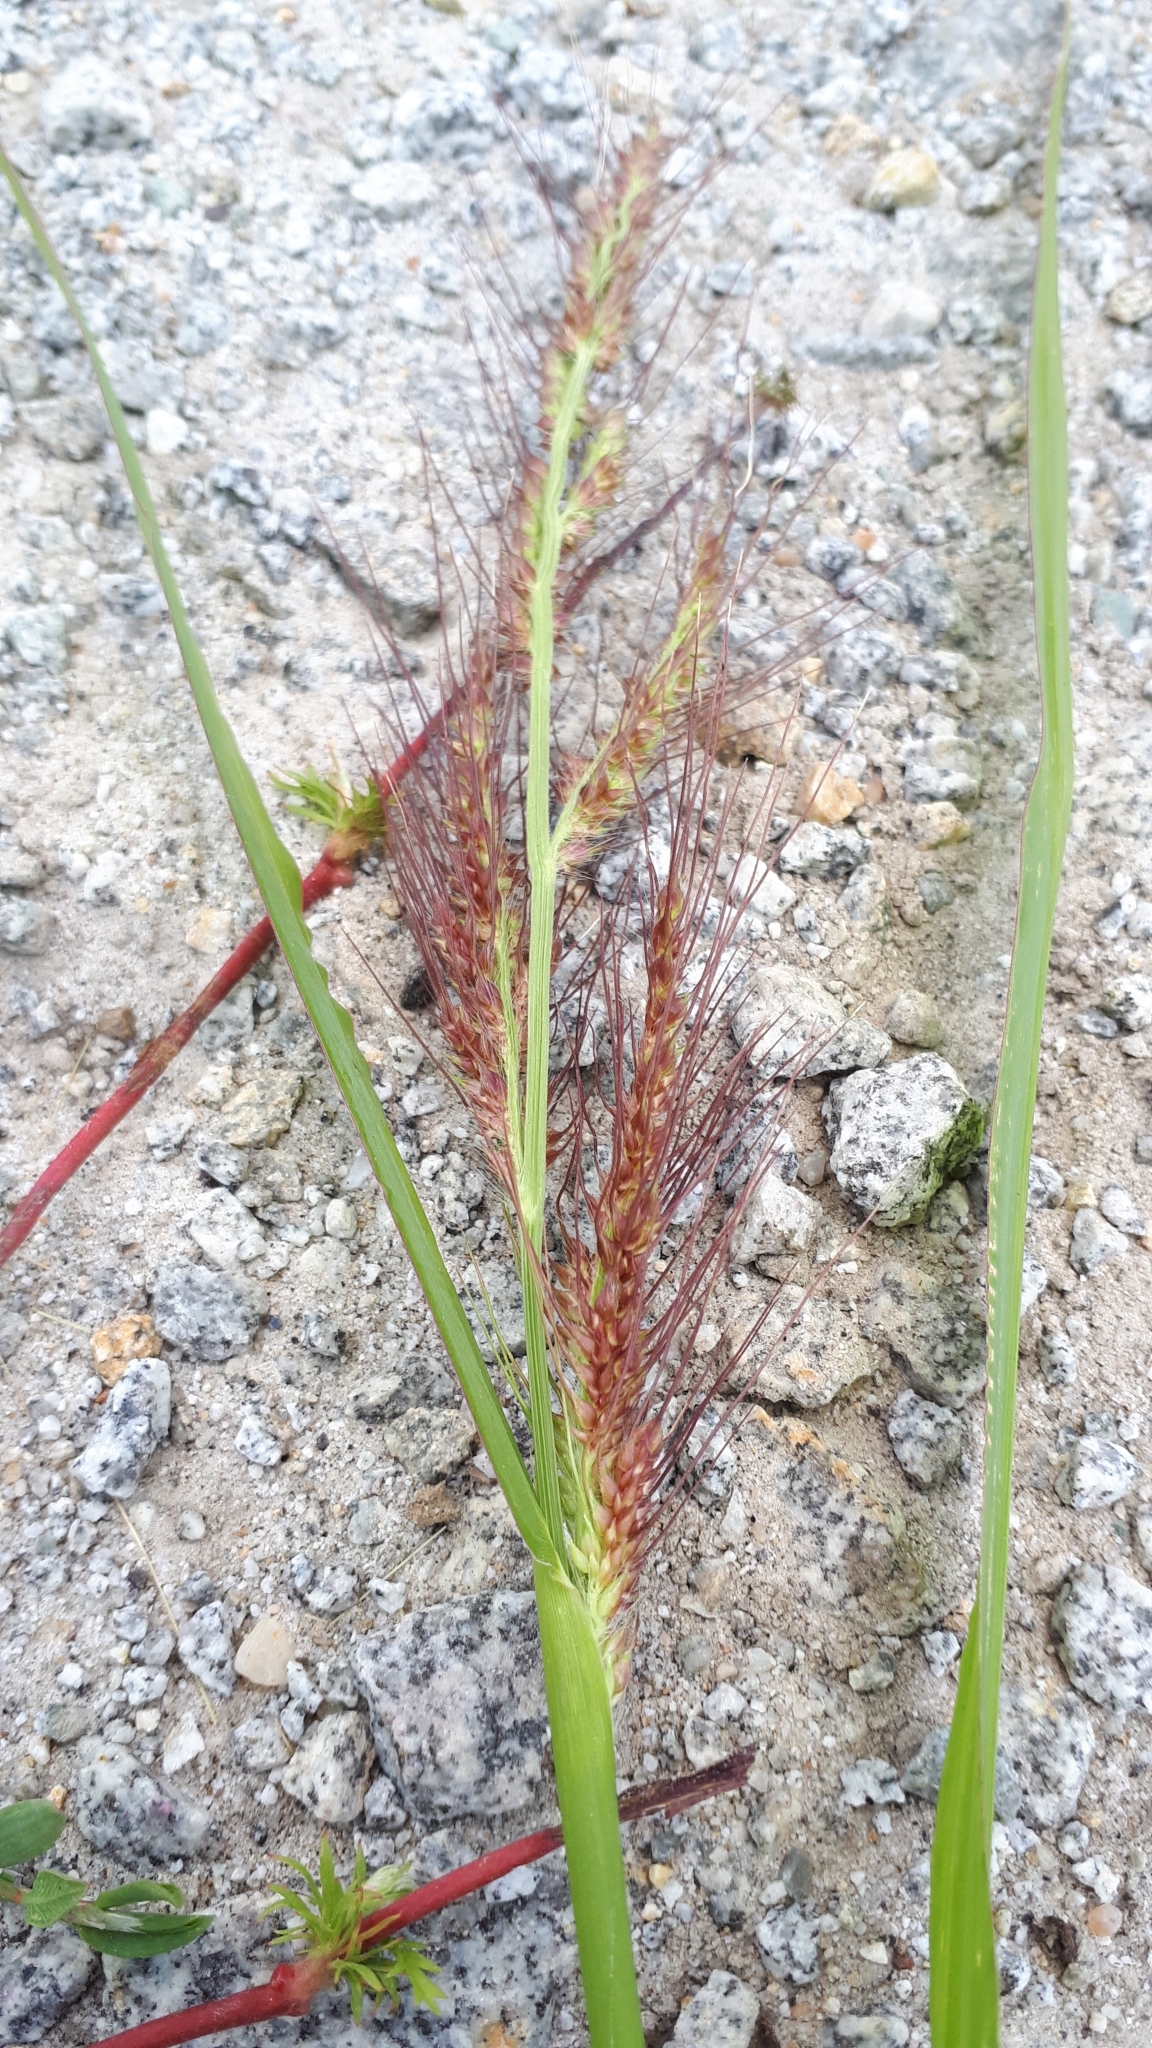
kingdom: Plantae
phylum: Tracheophyta
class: Liliopsida
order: Poales
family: Poaceae
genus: Echinochloa
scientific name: Echinochloa crus-galli
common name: Cockspur
